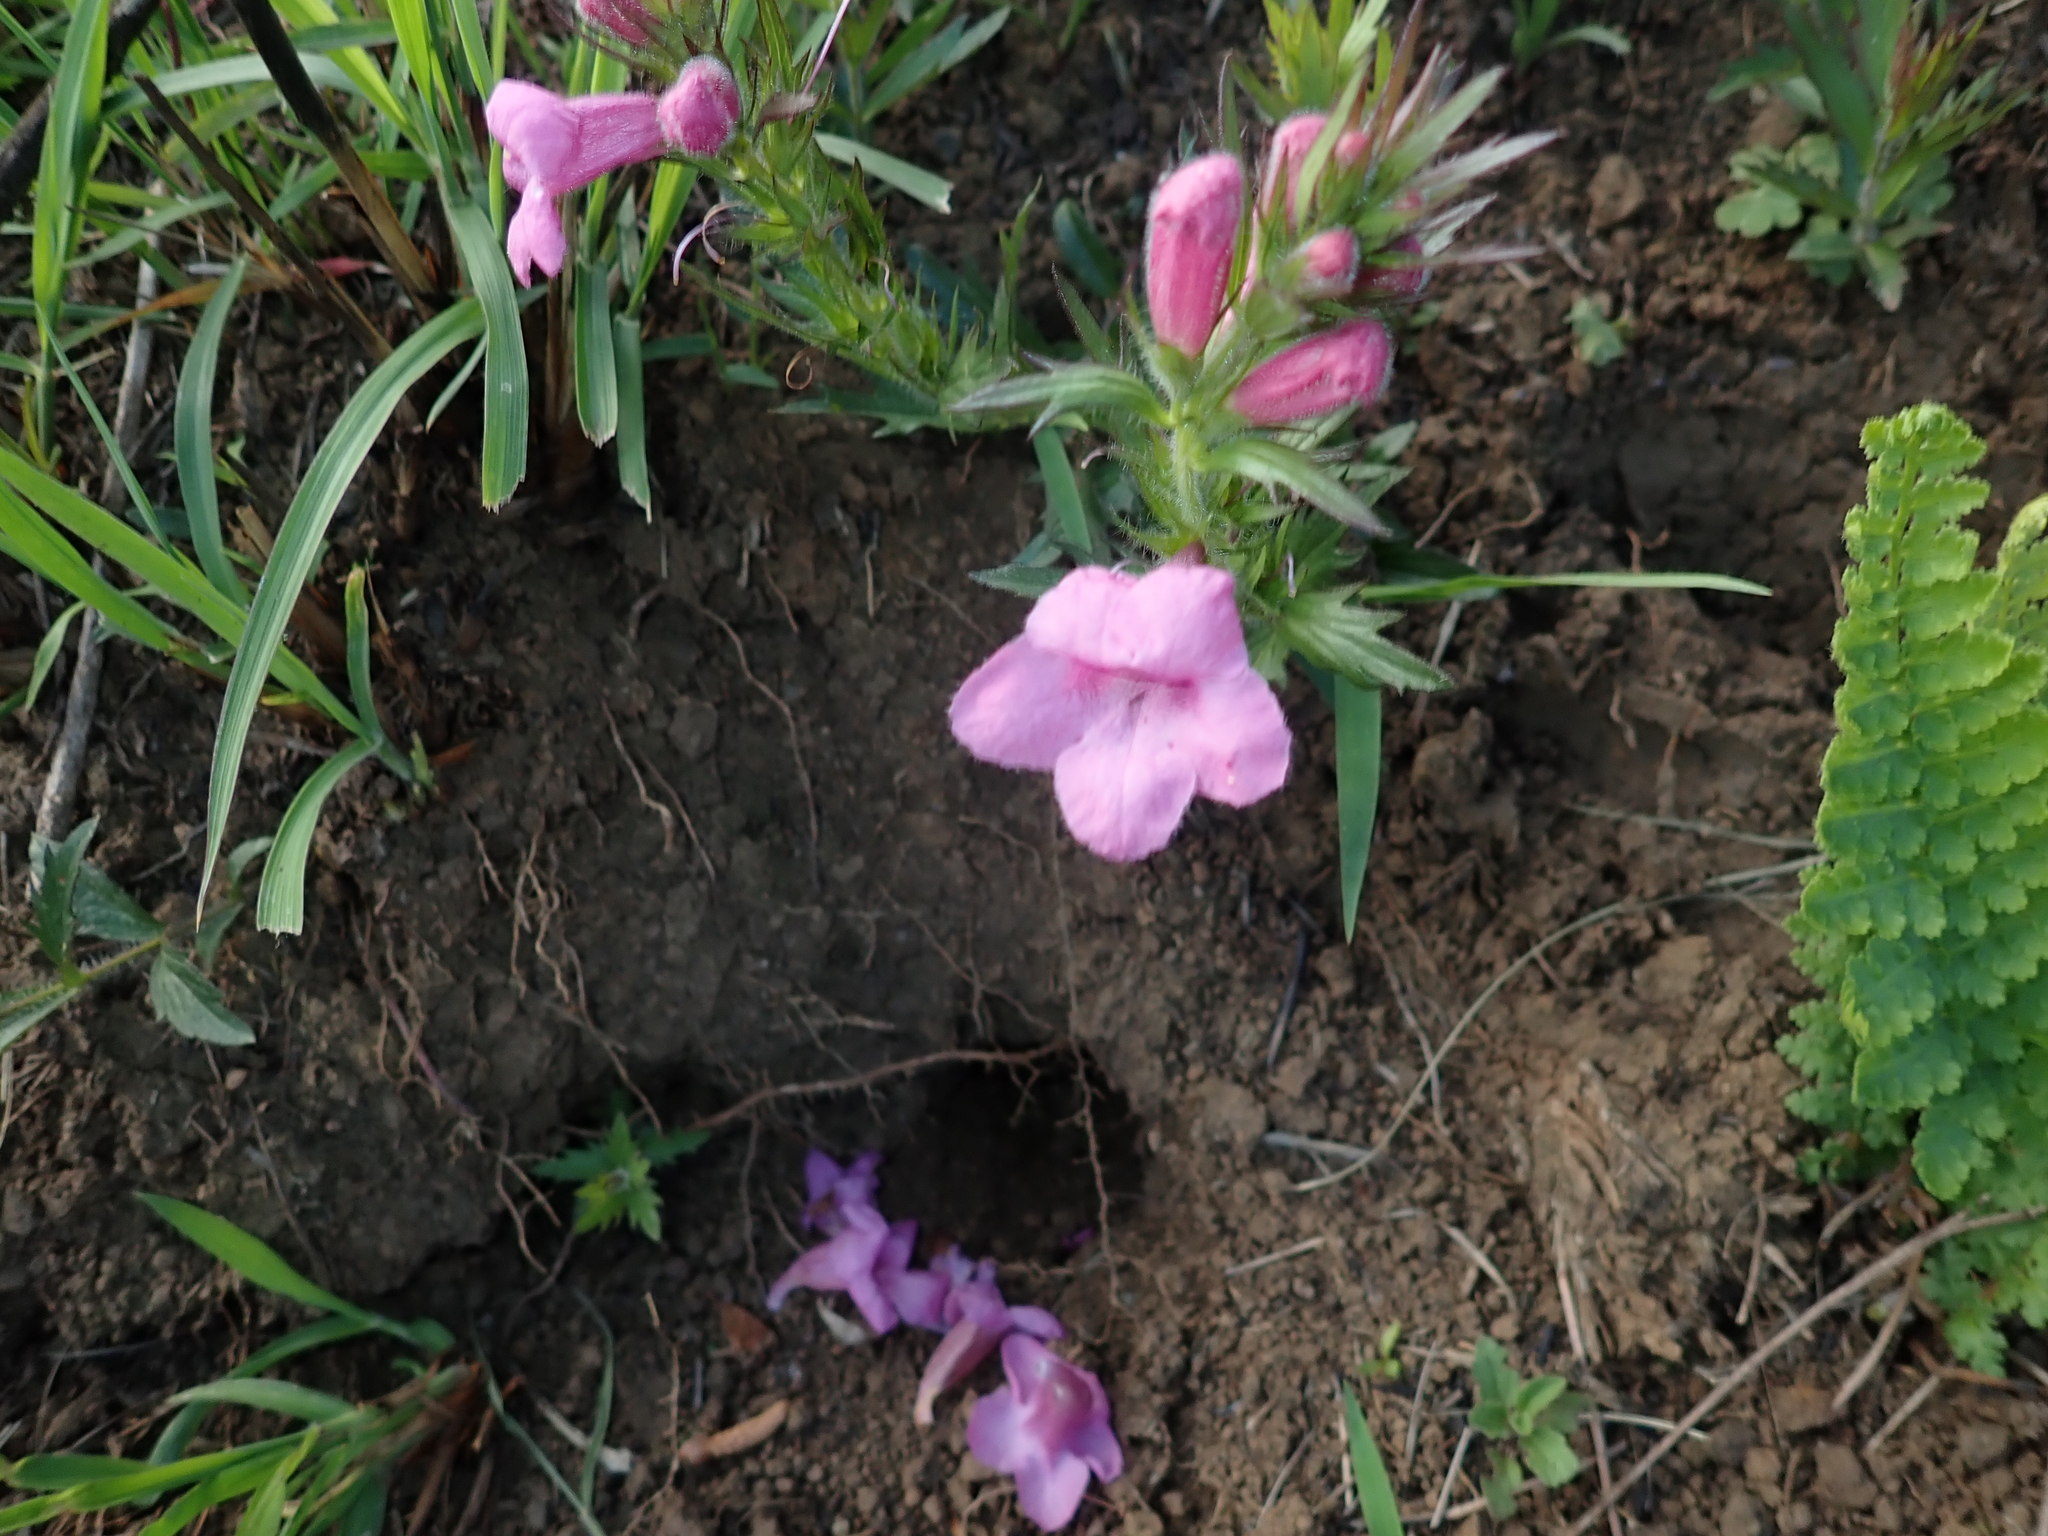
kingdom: Plantae
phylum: Tracheophyta
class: Magnoliopsida
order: Lamiales
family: Orobanchaceae
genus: Graderia
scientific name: Graderia scabra
